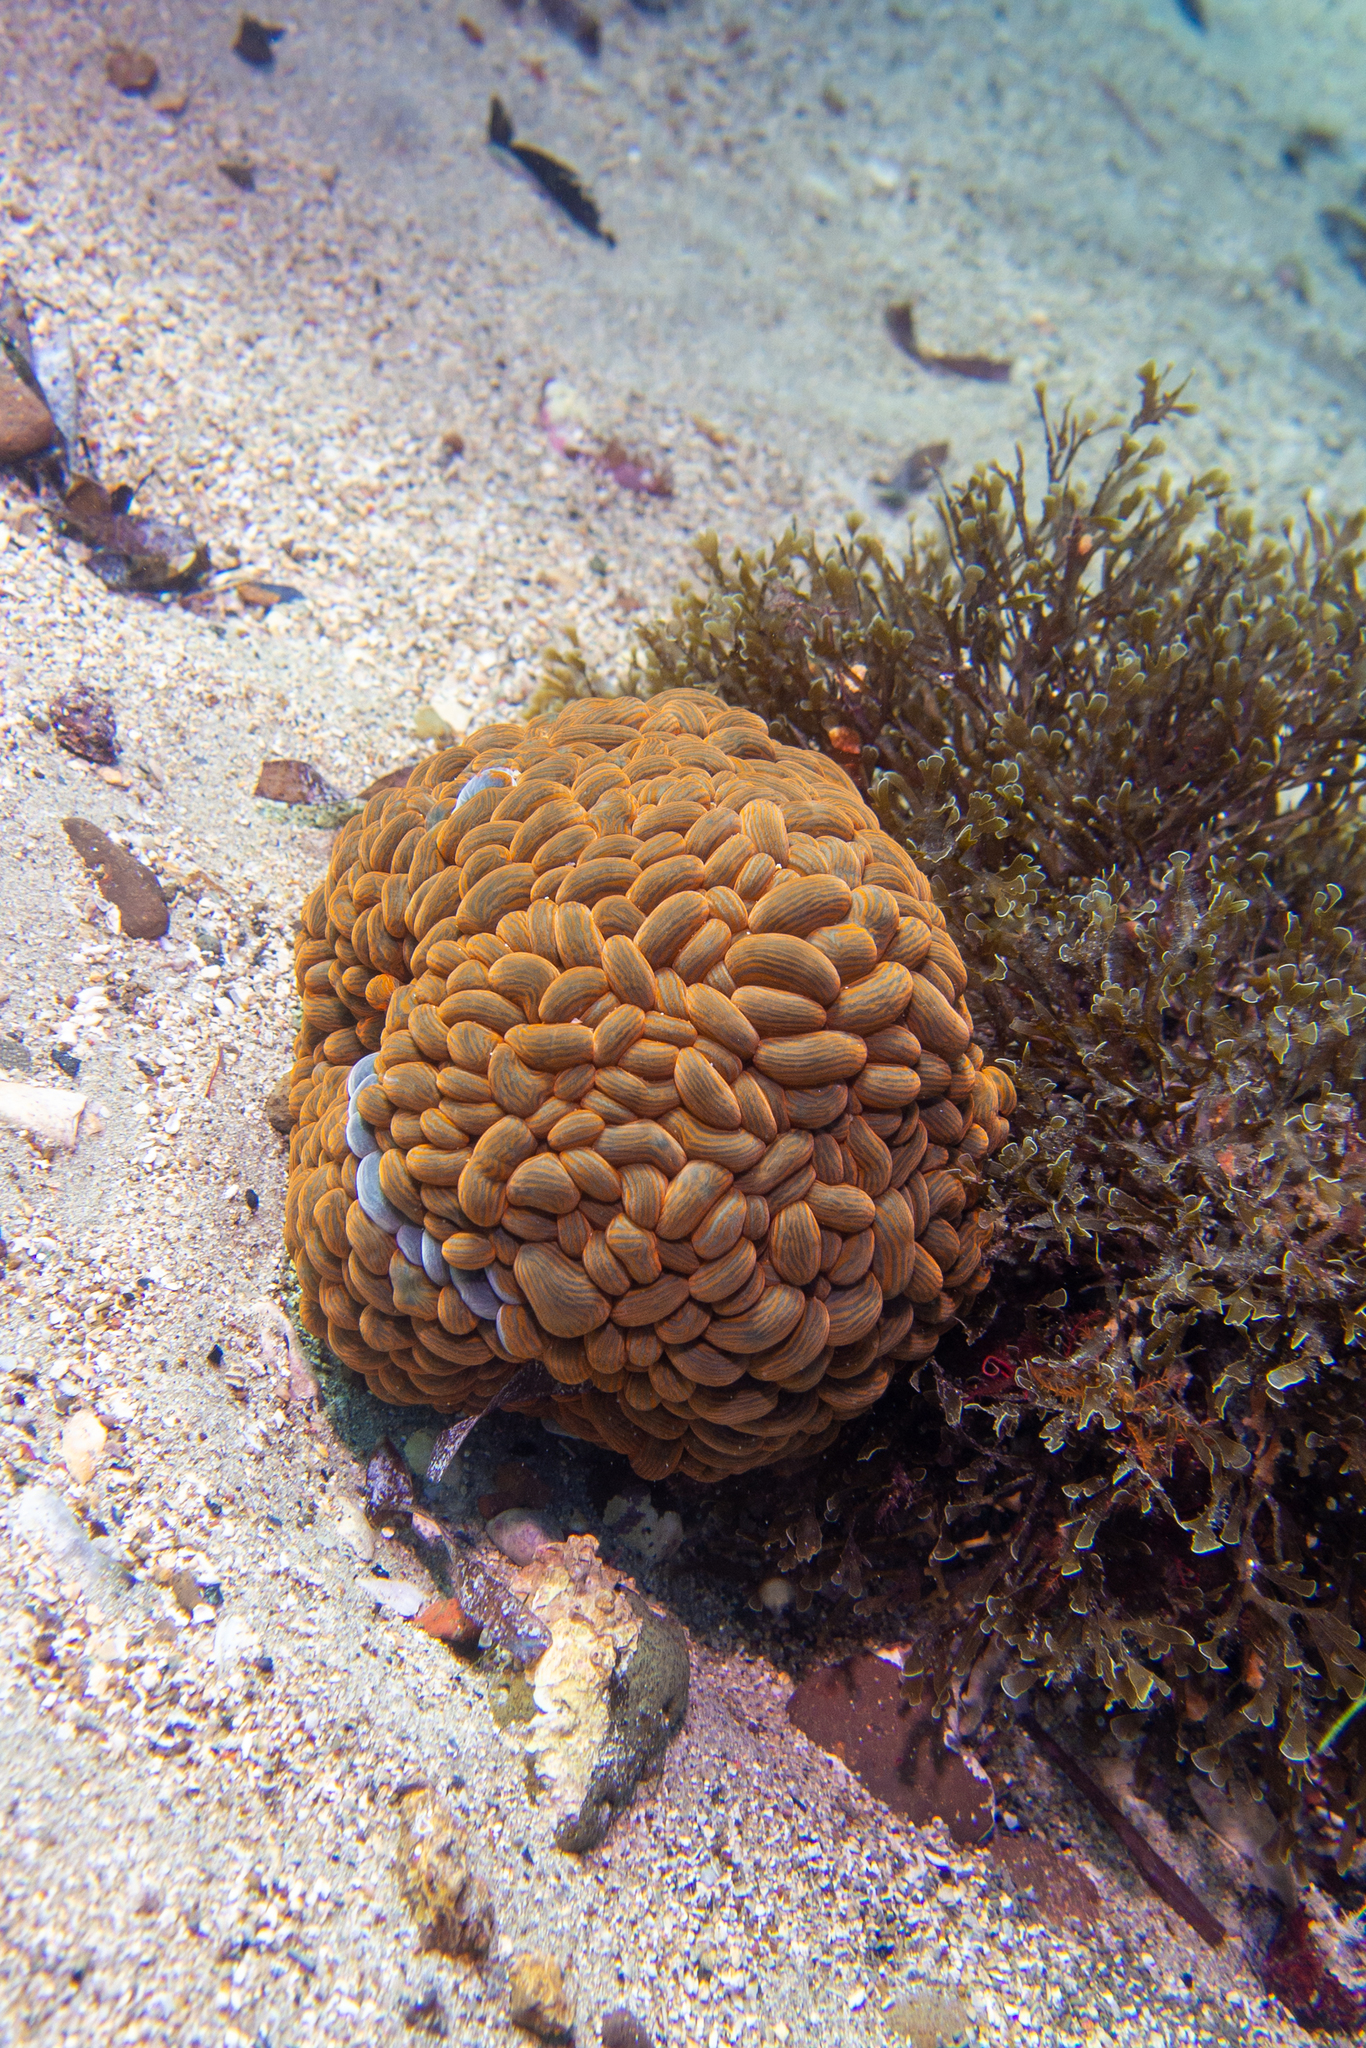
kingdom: Animalia
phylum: Cnidaria
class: Anthozoa
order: Actiniaria
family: Actiniidae
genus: Phlyctenactis
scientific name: Phlyctenactis tuberculosa
